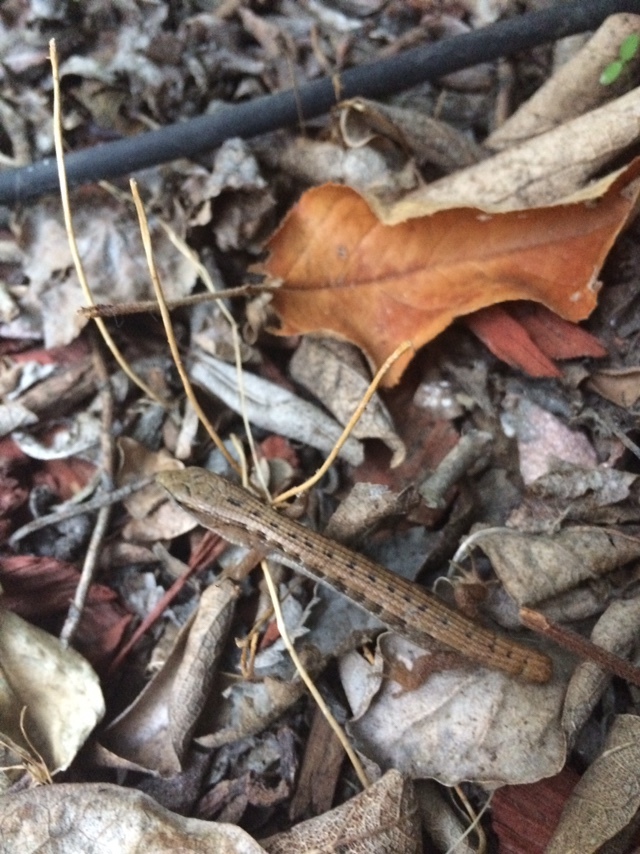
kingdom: Animalia
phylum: Chordata
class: Squamata
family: Anguidae
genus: Elgaria
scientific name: Elgaria multicarinata
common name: Southern alligator lizard
